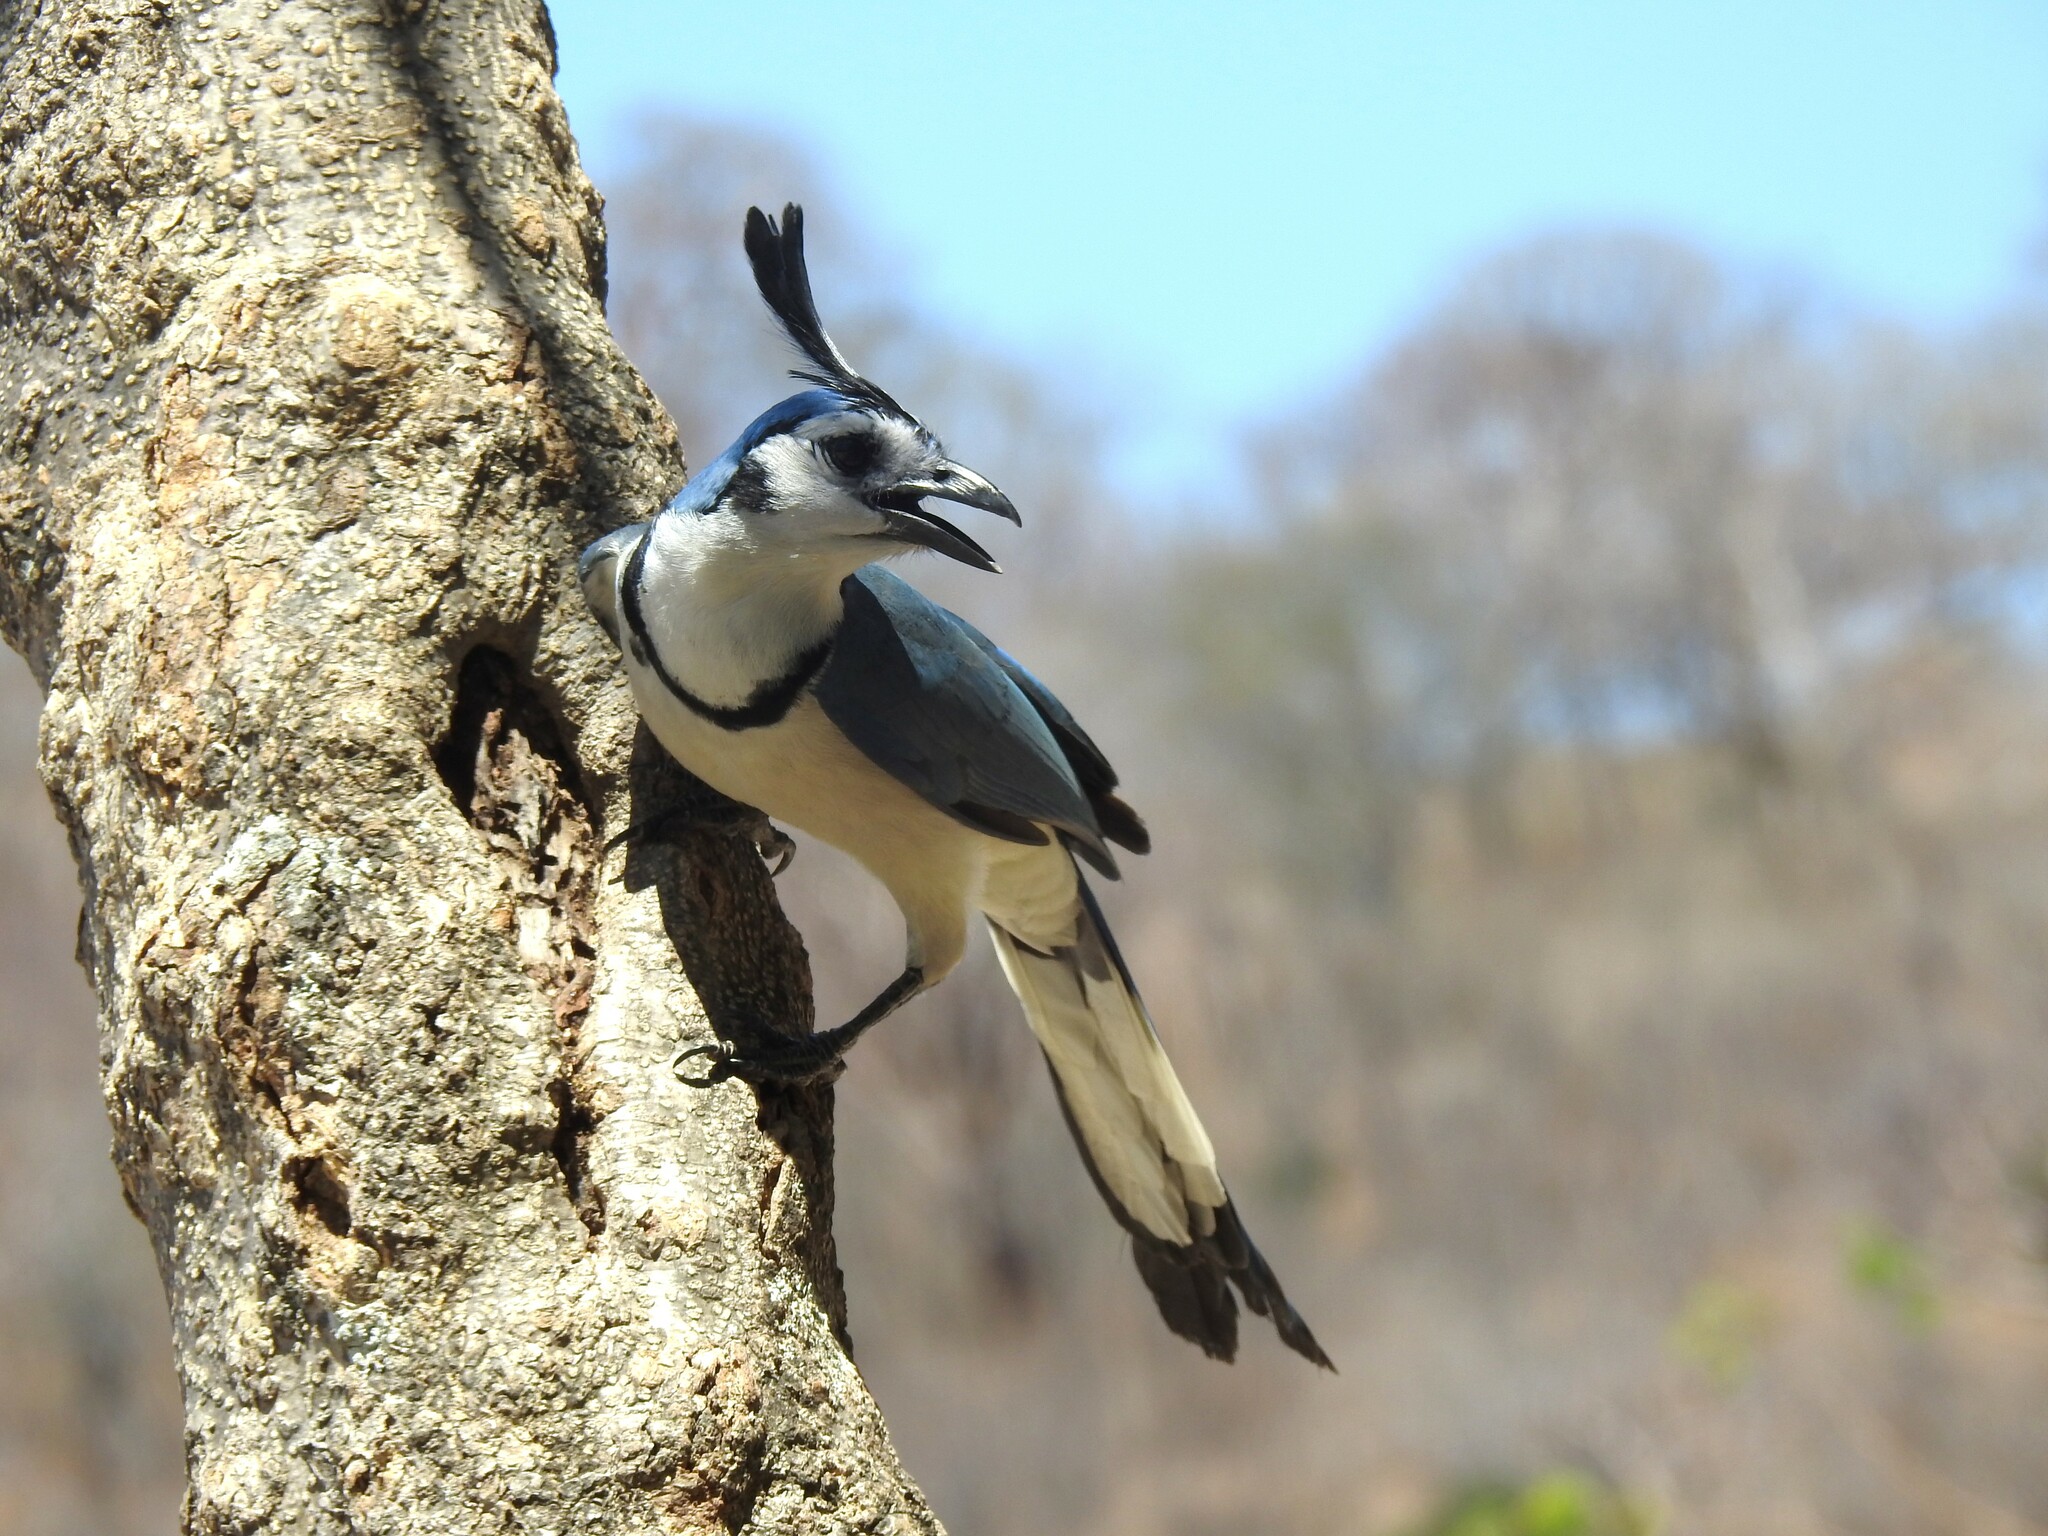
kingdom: Animalia
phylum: Chordata
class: Aves
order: Passeriformes
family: Corvidae
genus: Calocitta
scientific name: Calocitta formosa
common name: White-throated magpie-jay
